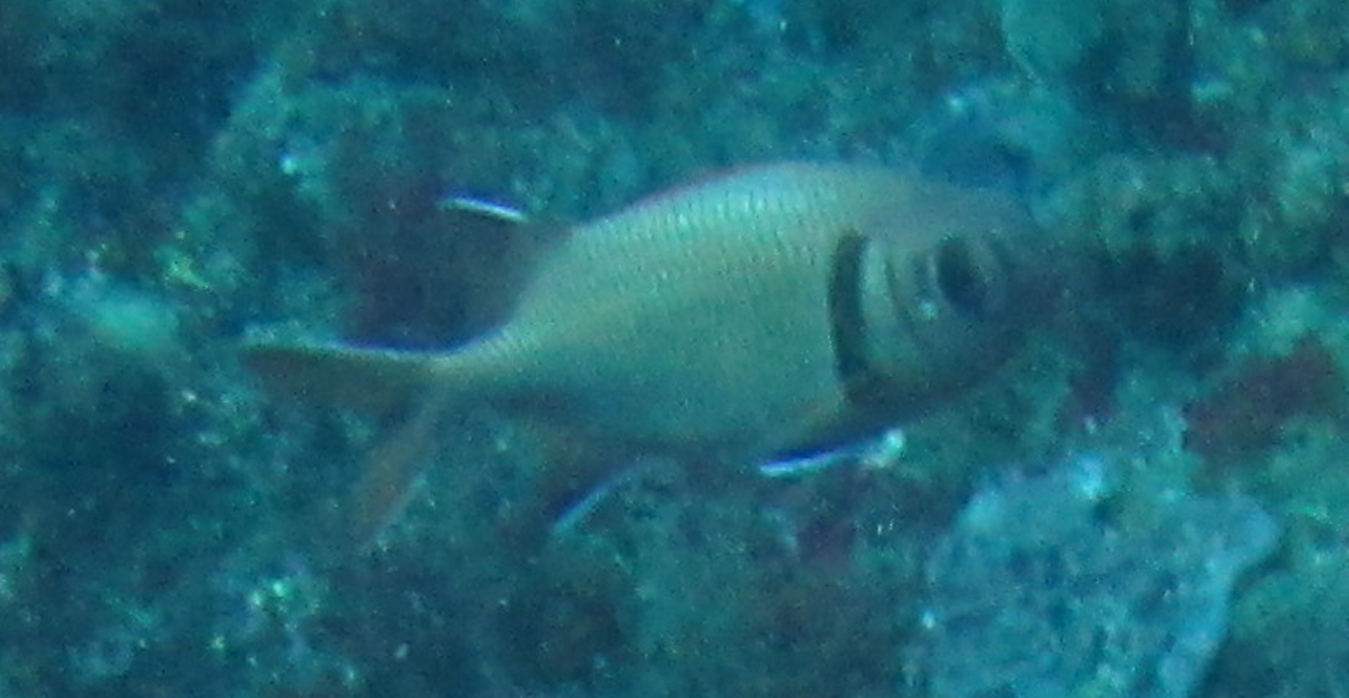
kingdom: Animalia
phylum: Chordata
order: Beryciformes
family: Holocentridae
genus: Myripristis
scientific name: Myripristis murdjan
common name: Big-eye soldierfish
